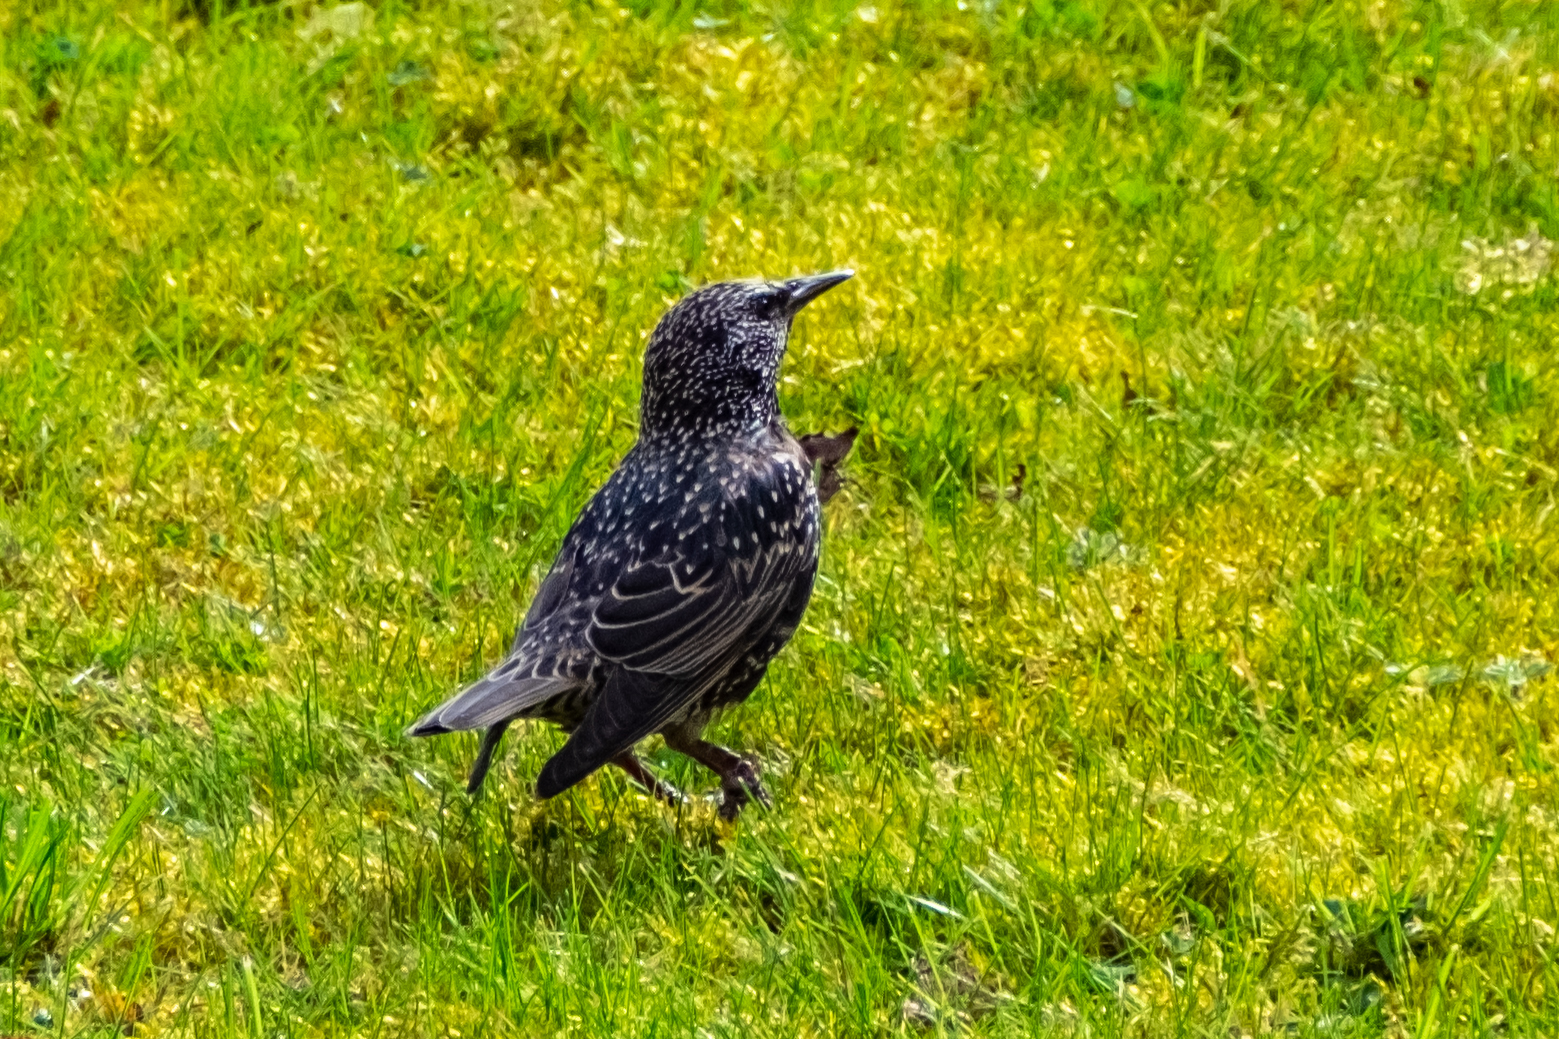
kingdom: Animalia
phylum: Chordata
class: Aves
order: Passeriformes
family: Sturnidae
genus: Sturnus
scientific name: Sturnus vulgaris
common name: Common starling
